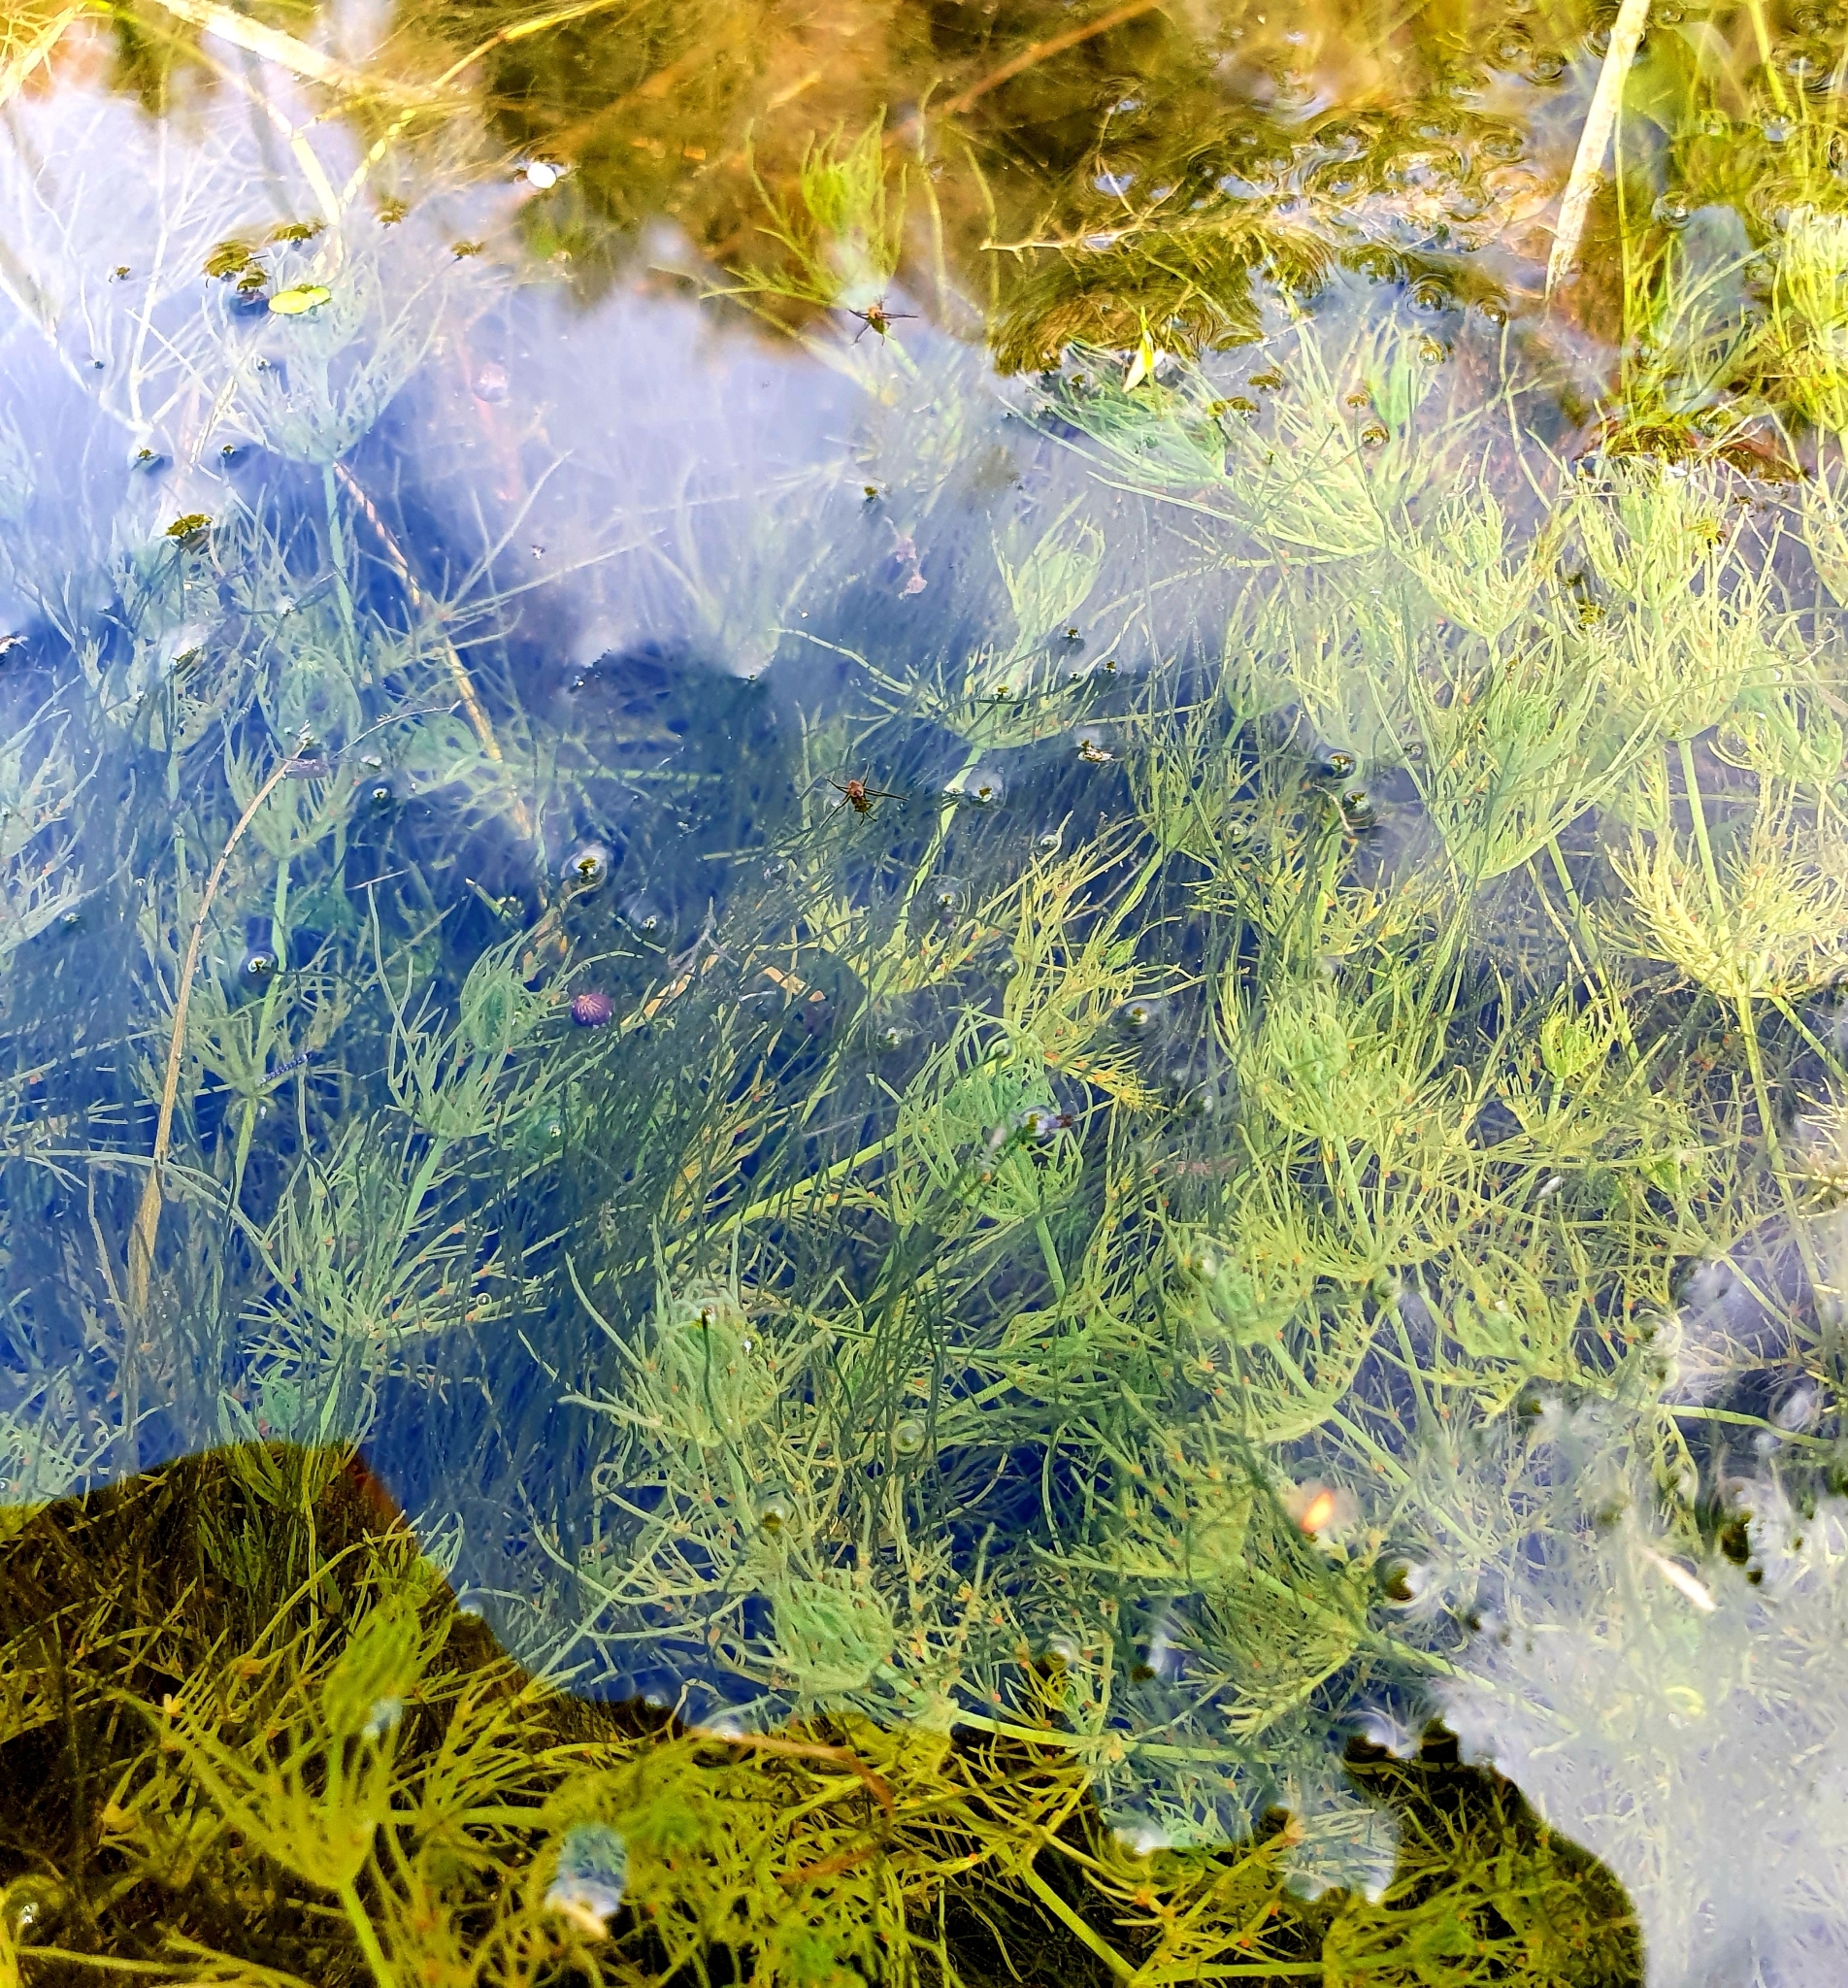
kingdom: Plantae
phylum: Charophyta
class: Charophyceae
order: Charales
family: Characeae
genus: Chara
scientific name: Chara vulgaris
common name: Common stonewort
